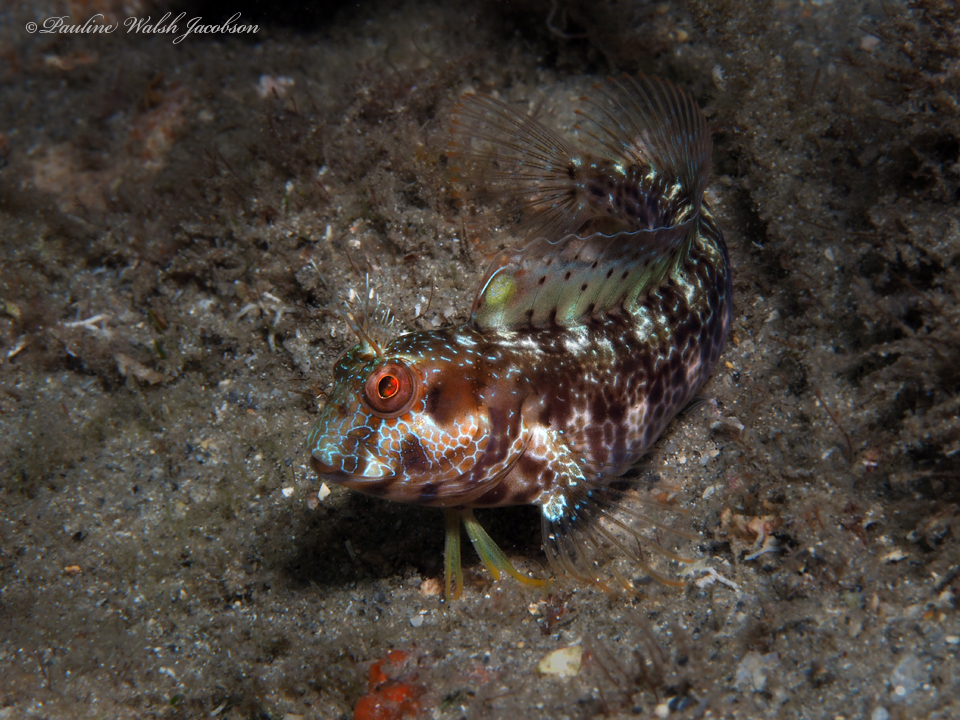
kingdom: Animalia
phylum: Chordata
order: Perciformes
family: Blenniidae
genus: Parablennius
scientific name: Parablennius marmoreus
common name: Seaweed blenny
